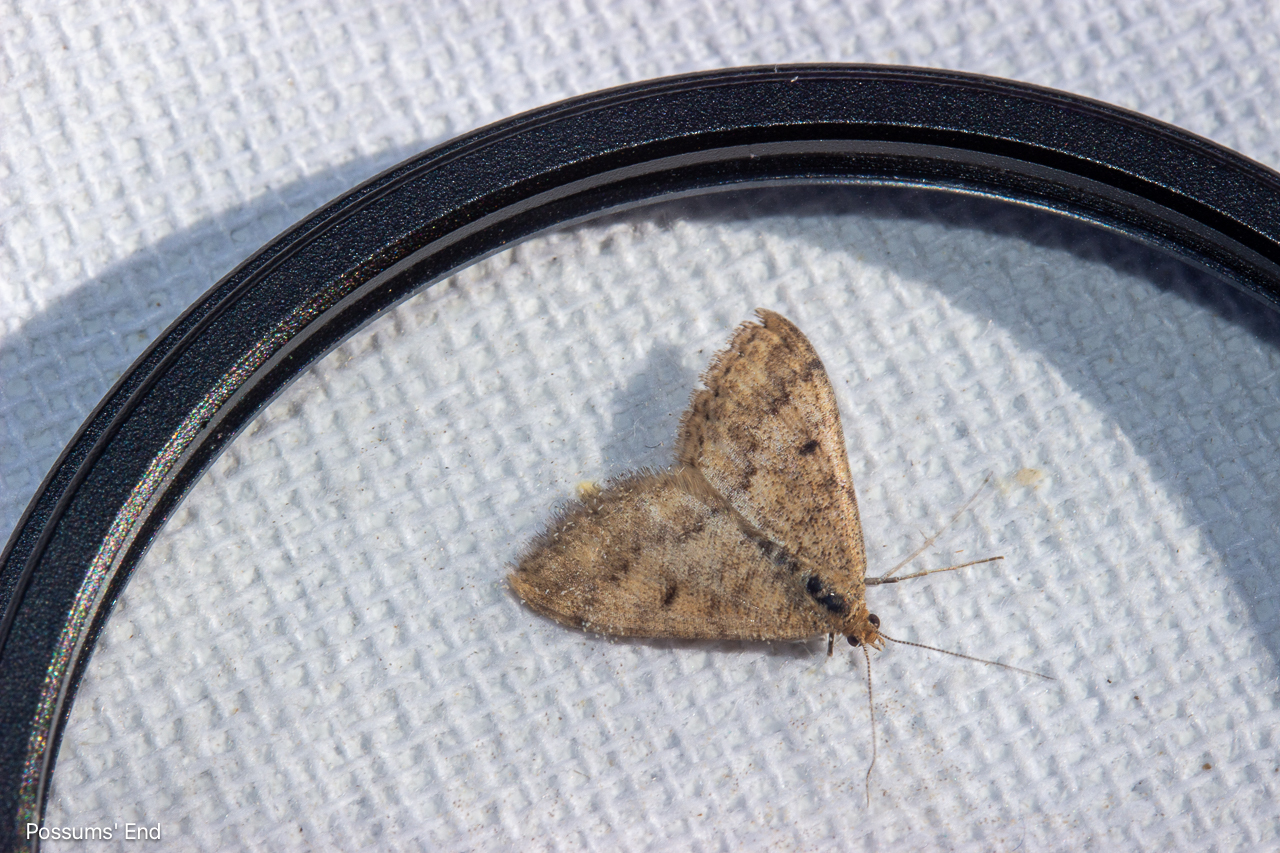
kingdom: Animalia
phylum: Arthropoda
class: Insecta
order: Lepidoptera
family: Geometridae
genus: Scopula
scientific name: Scopula rubraria
